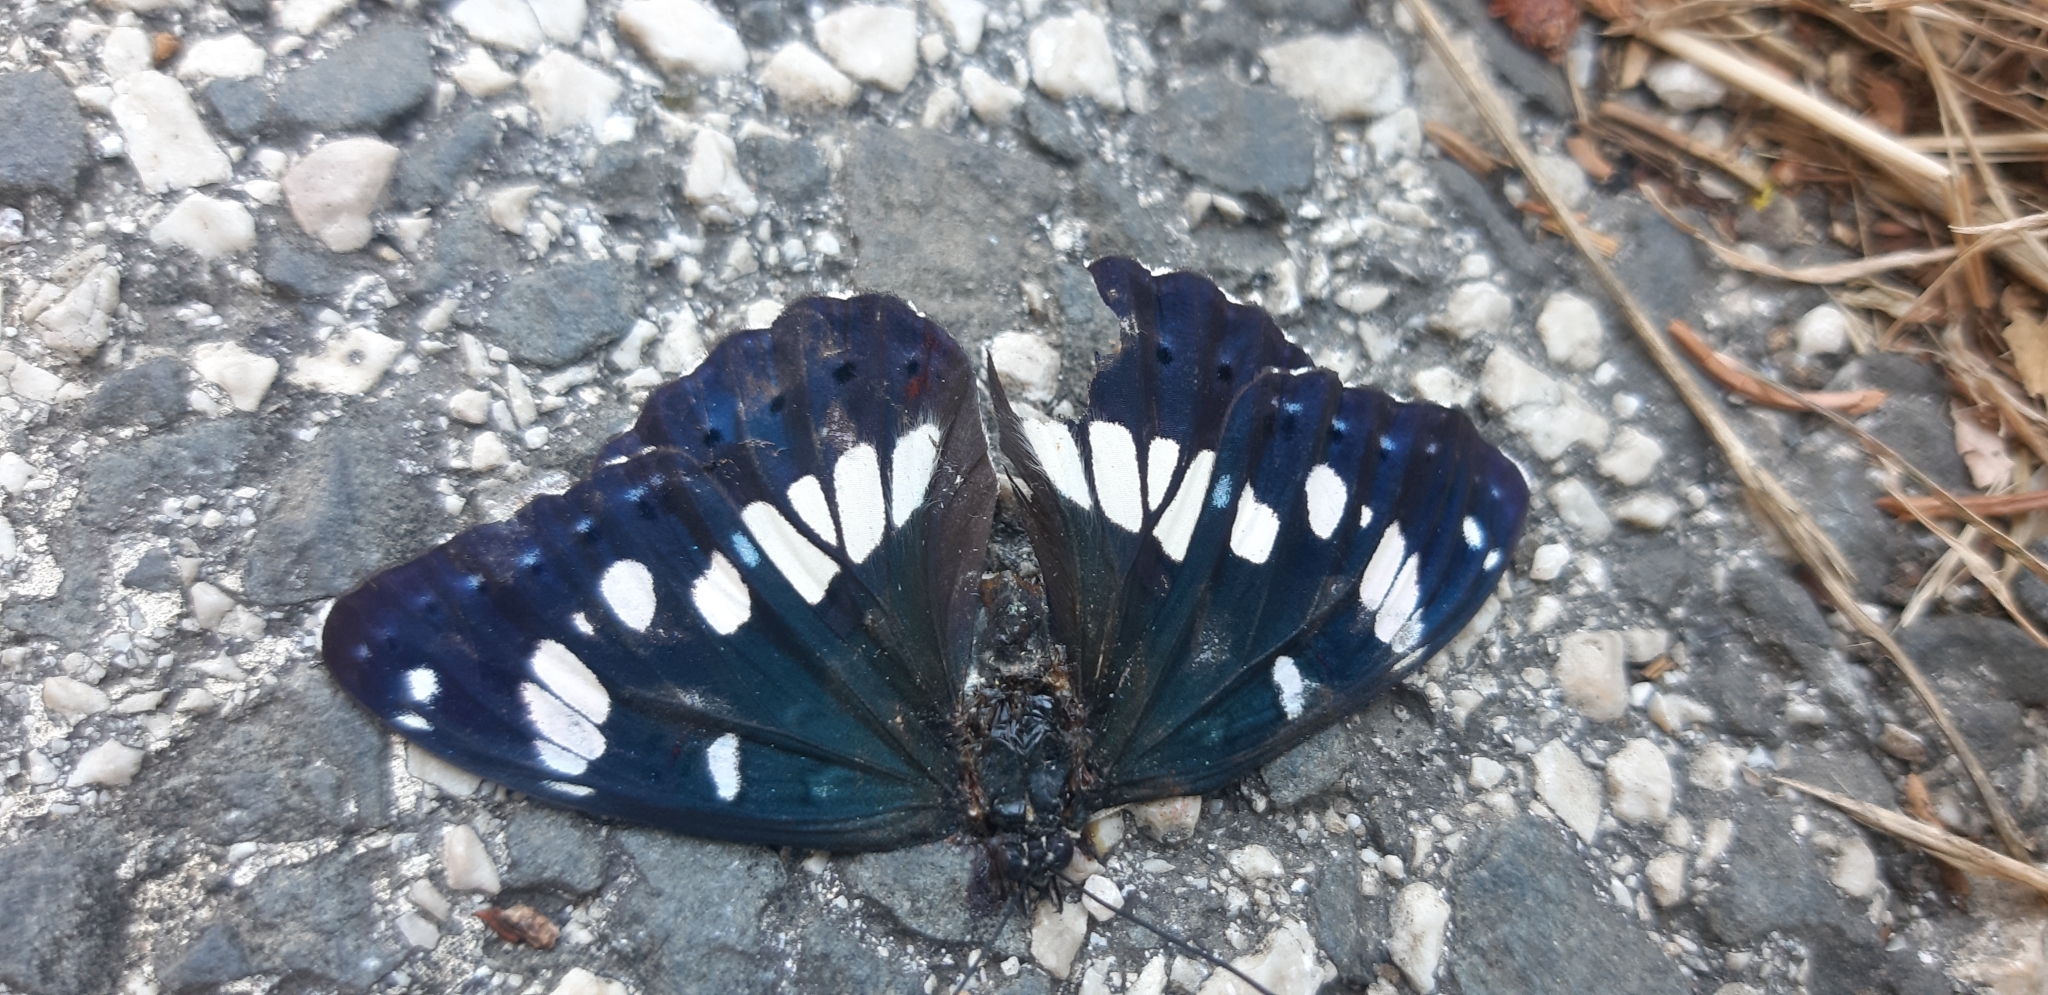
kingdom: Animalia
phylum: Arthropoda
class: Insecta
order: Lepidoptera
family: Nymphalidae
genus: Limenitis
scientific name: Limenitis reducta
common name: Southern white admiral
